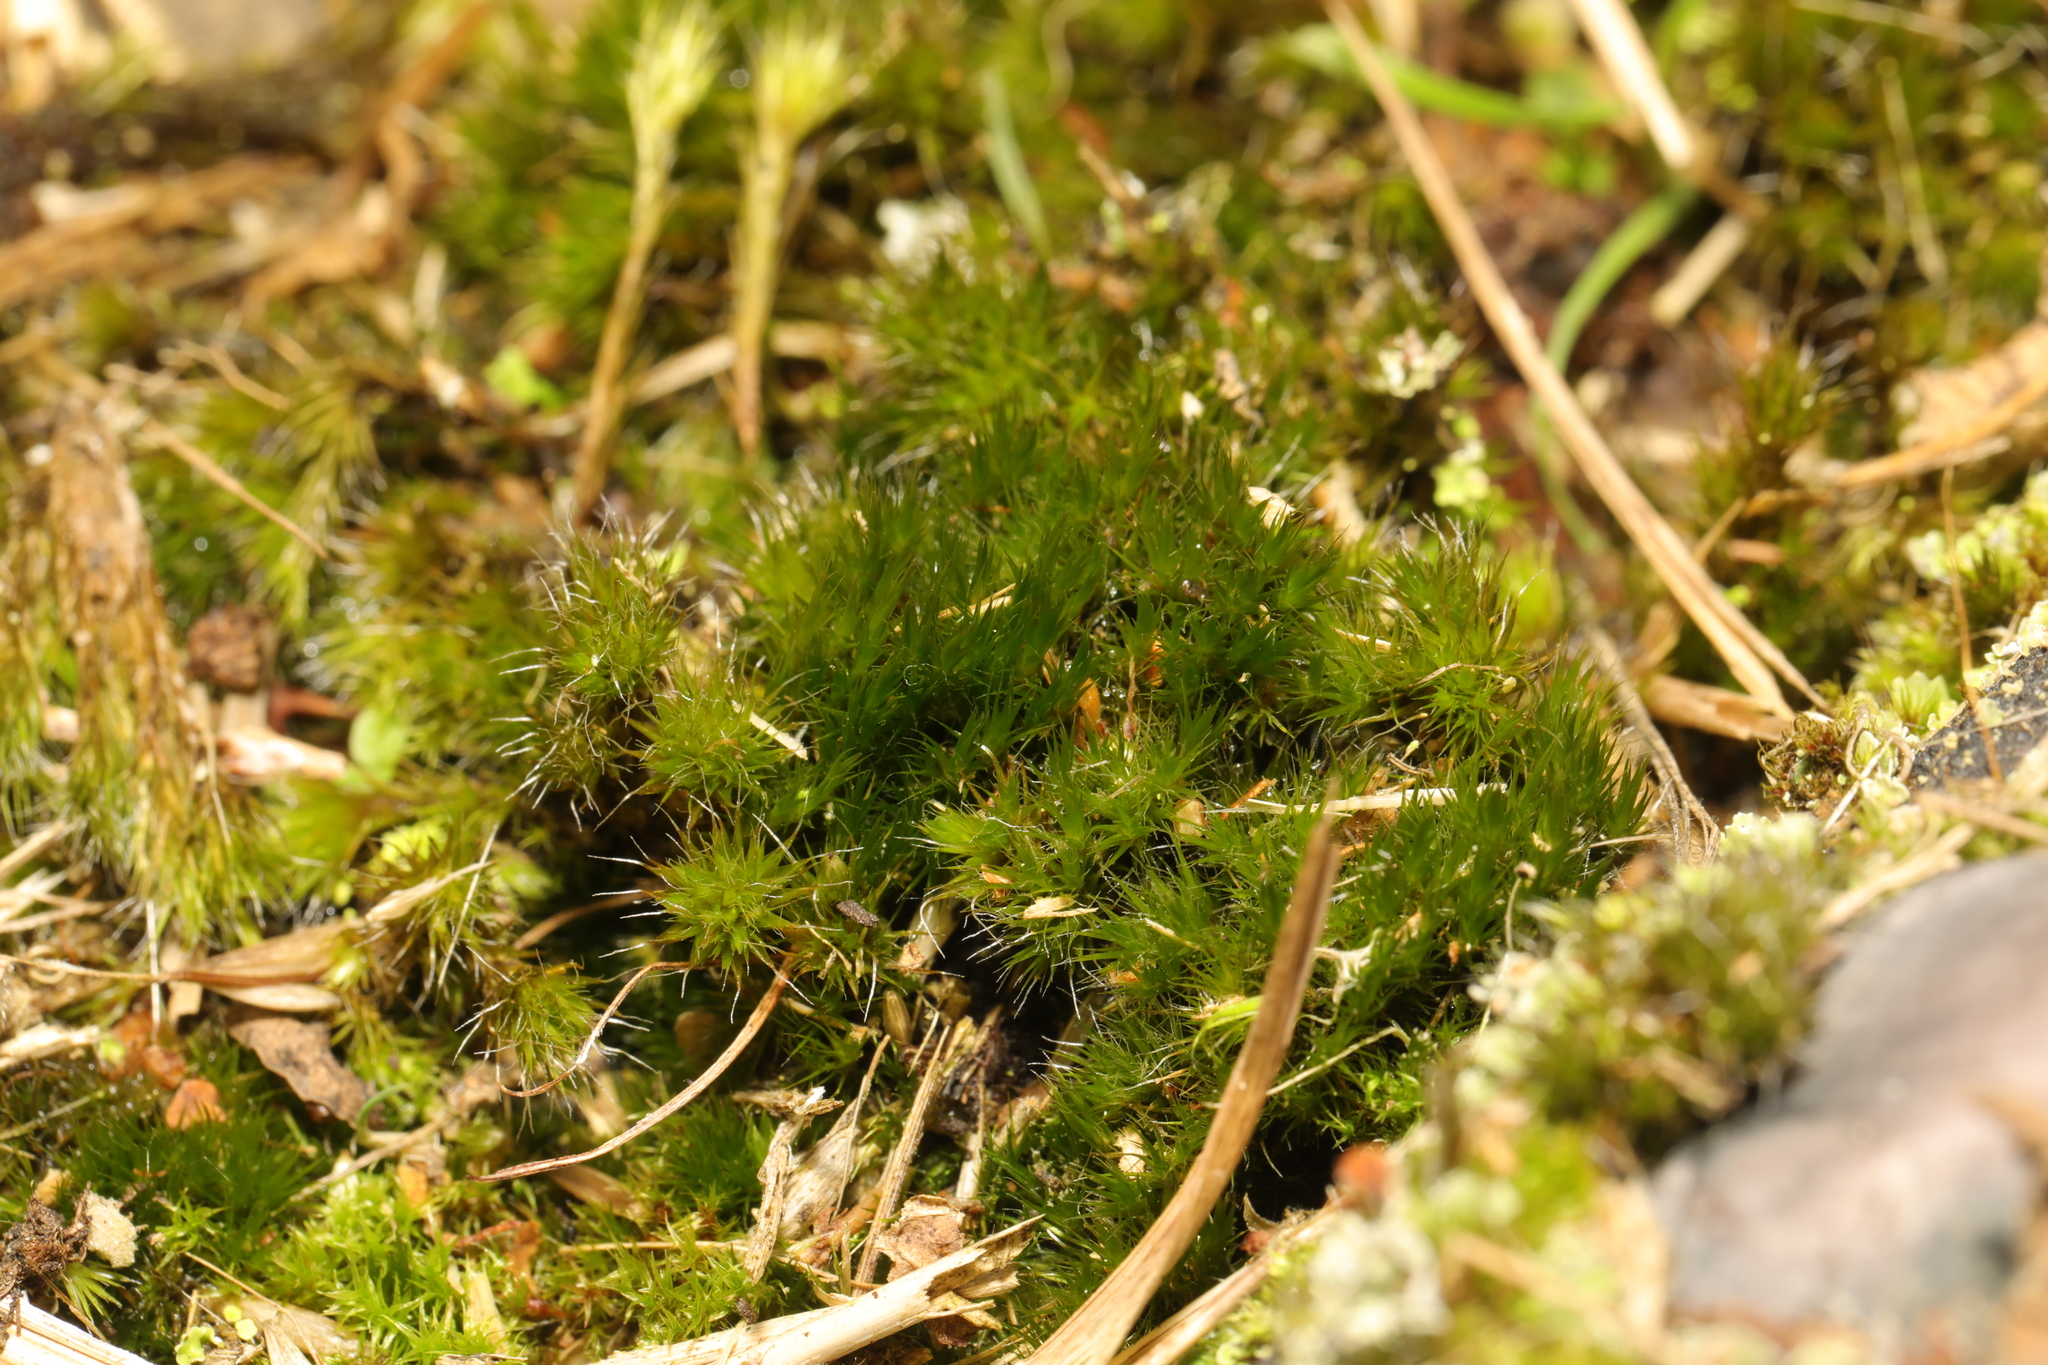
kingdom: Plantae
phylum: Bryophyta
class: Bryopsida
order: Dicranales
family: Leucobryaceae
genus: Campylopus
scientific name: Campylopus introflexus
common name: Heath star moss
